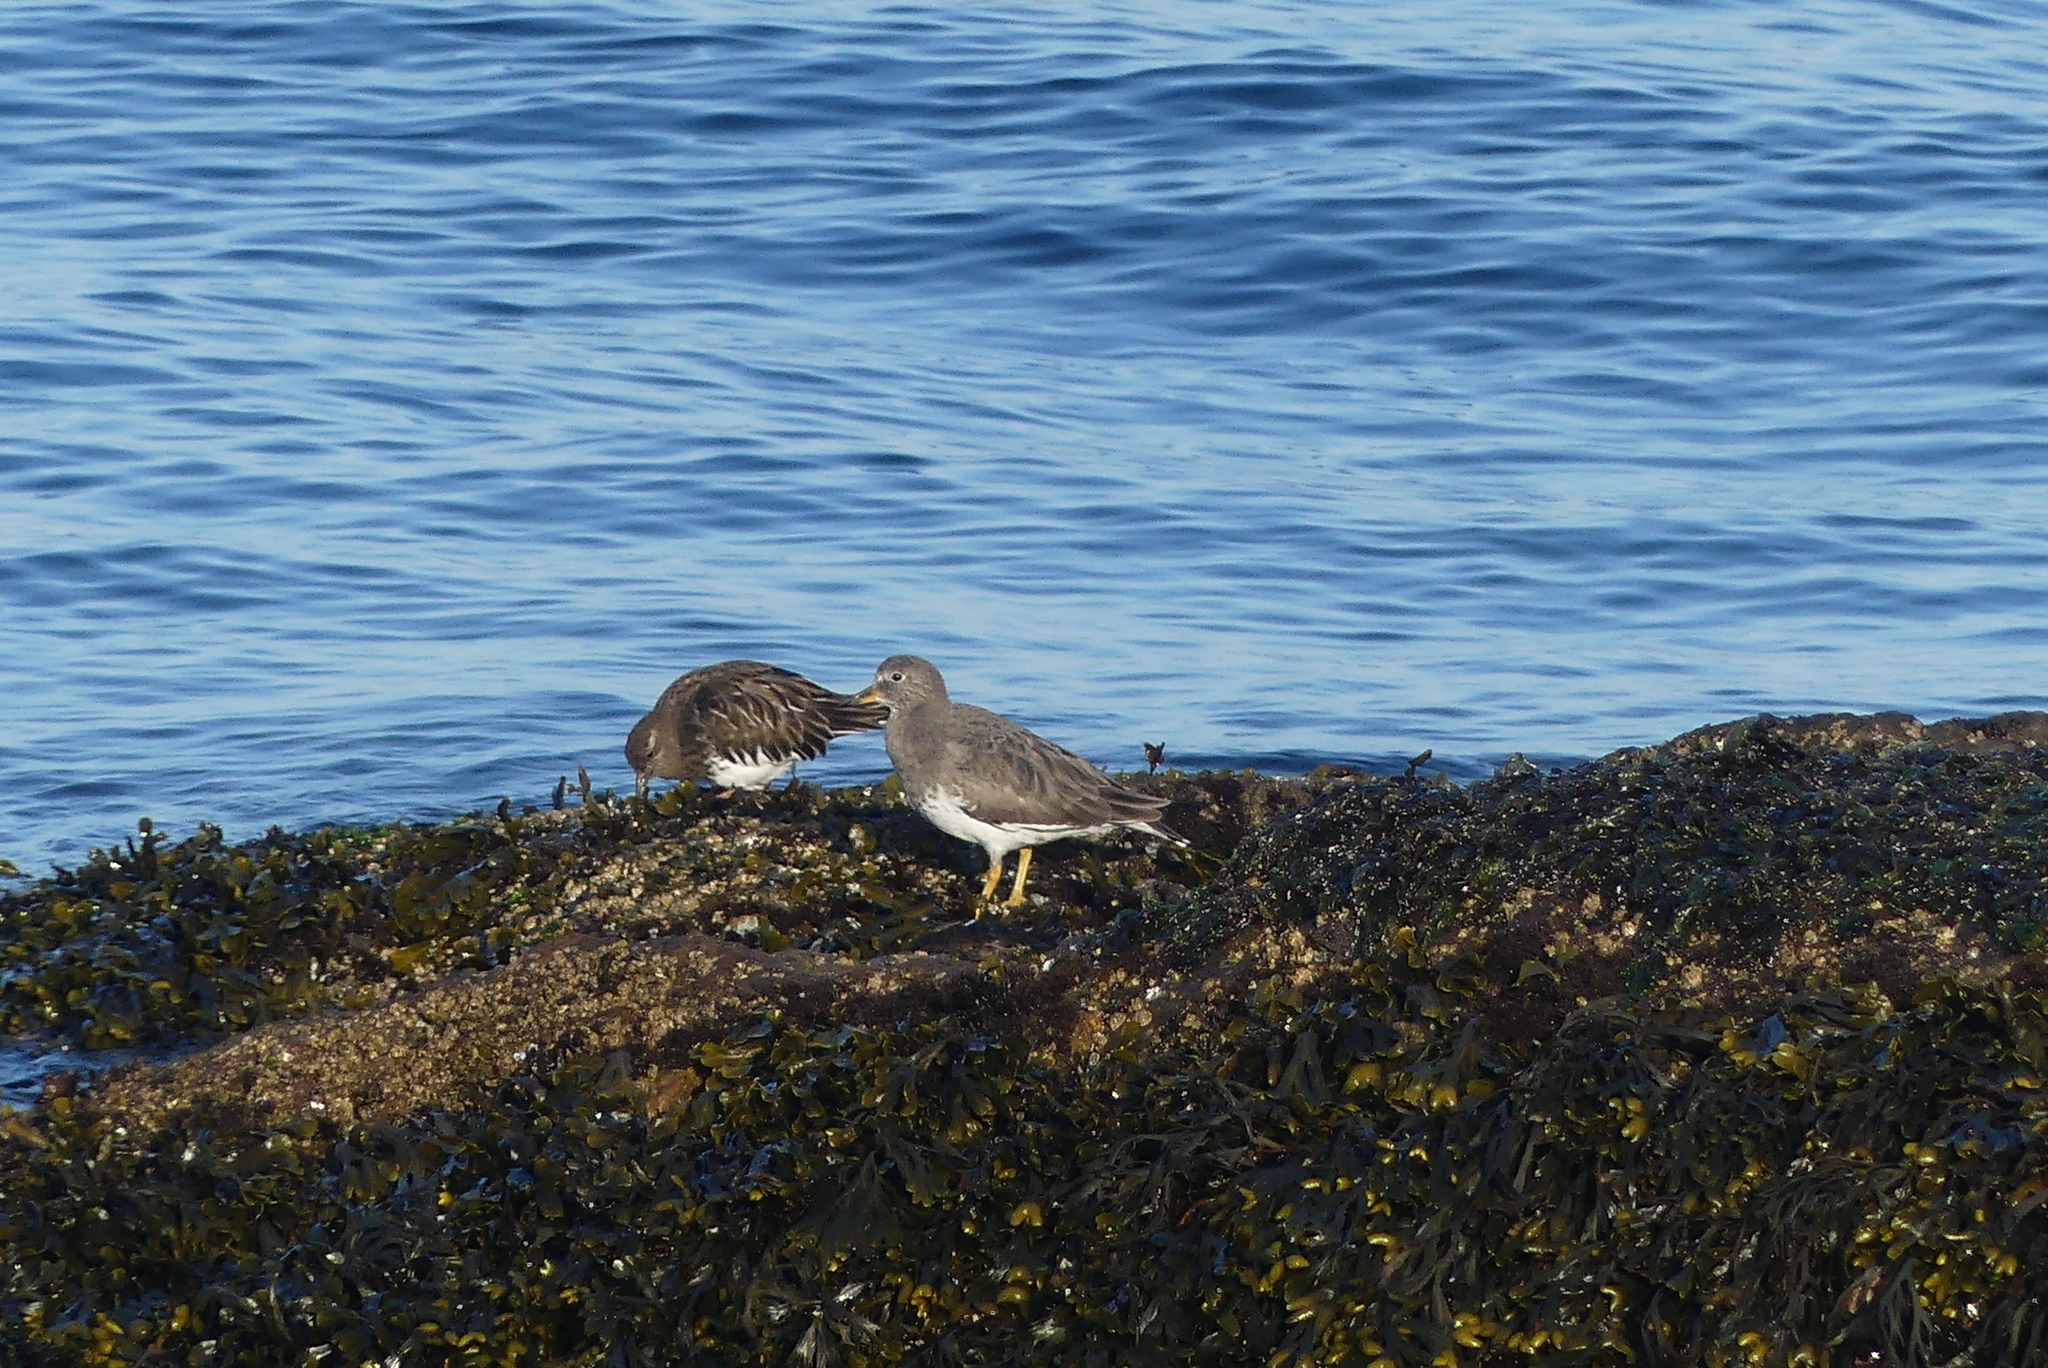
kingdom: Animalia
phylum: Chordata
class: Aves
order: Charadriiformes
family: Scolopacidae
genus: Calidris
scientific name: Calidris virgata
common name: Surfbird
